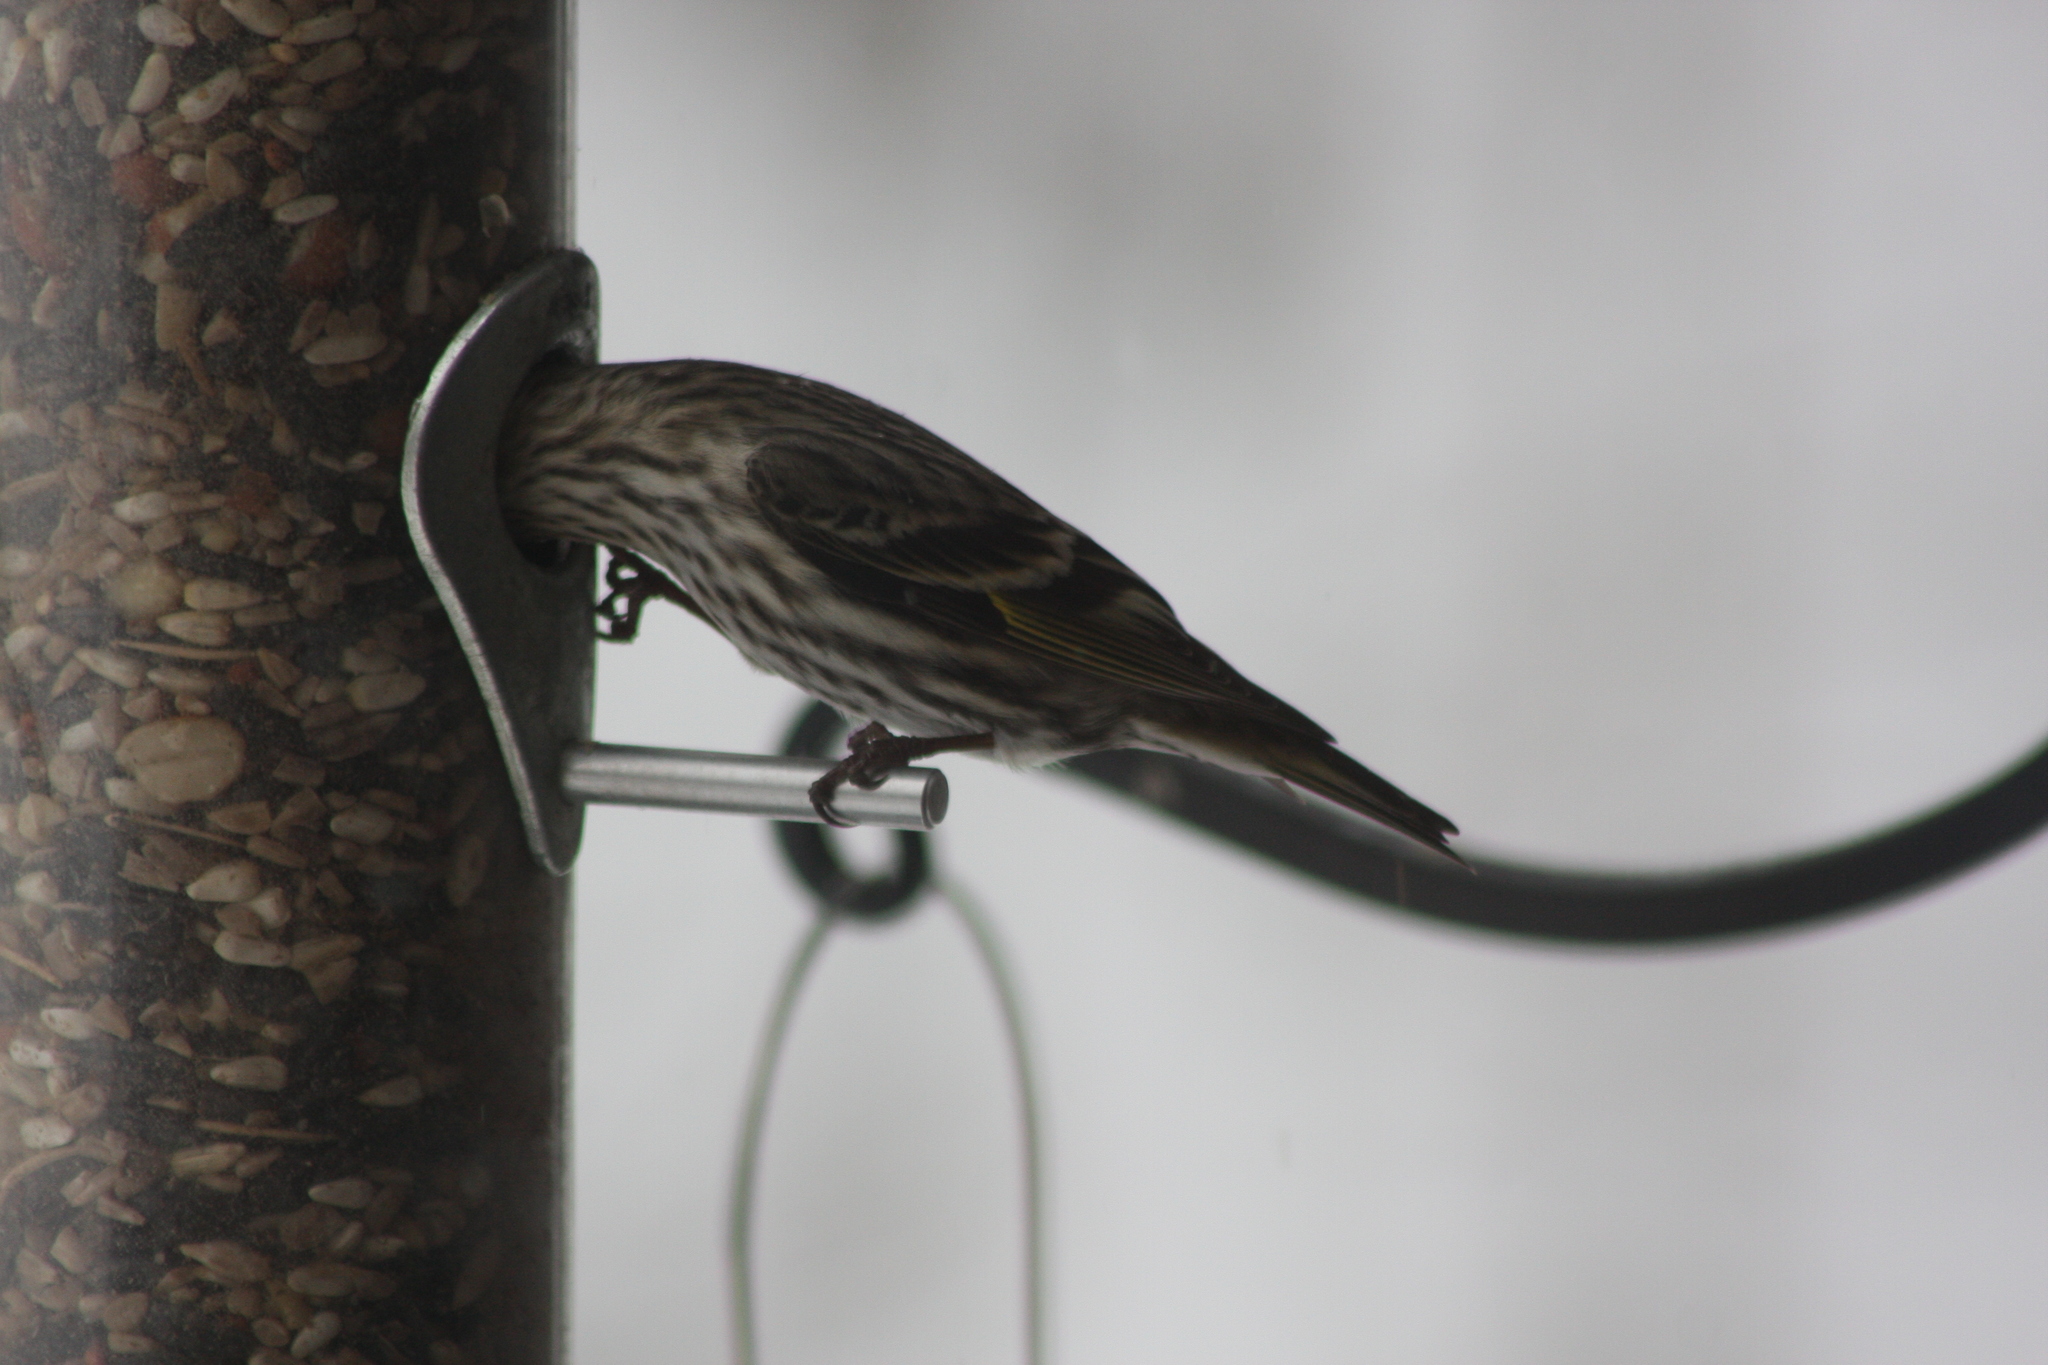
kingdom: Animalia
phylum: Chordata
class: Aves
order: Passeriformes
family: Fringillidae
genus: Spinus
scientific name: Spinus pinus
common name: Pine siskin
